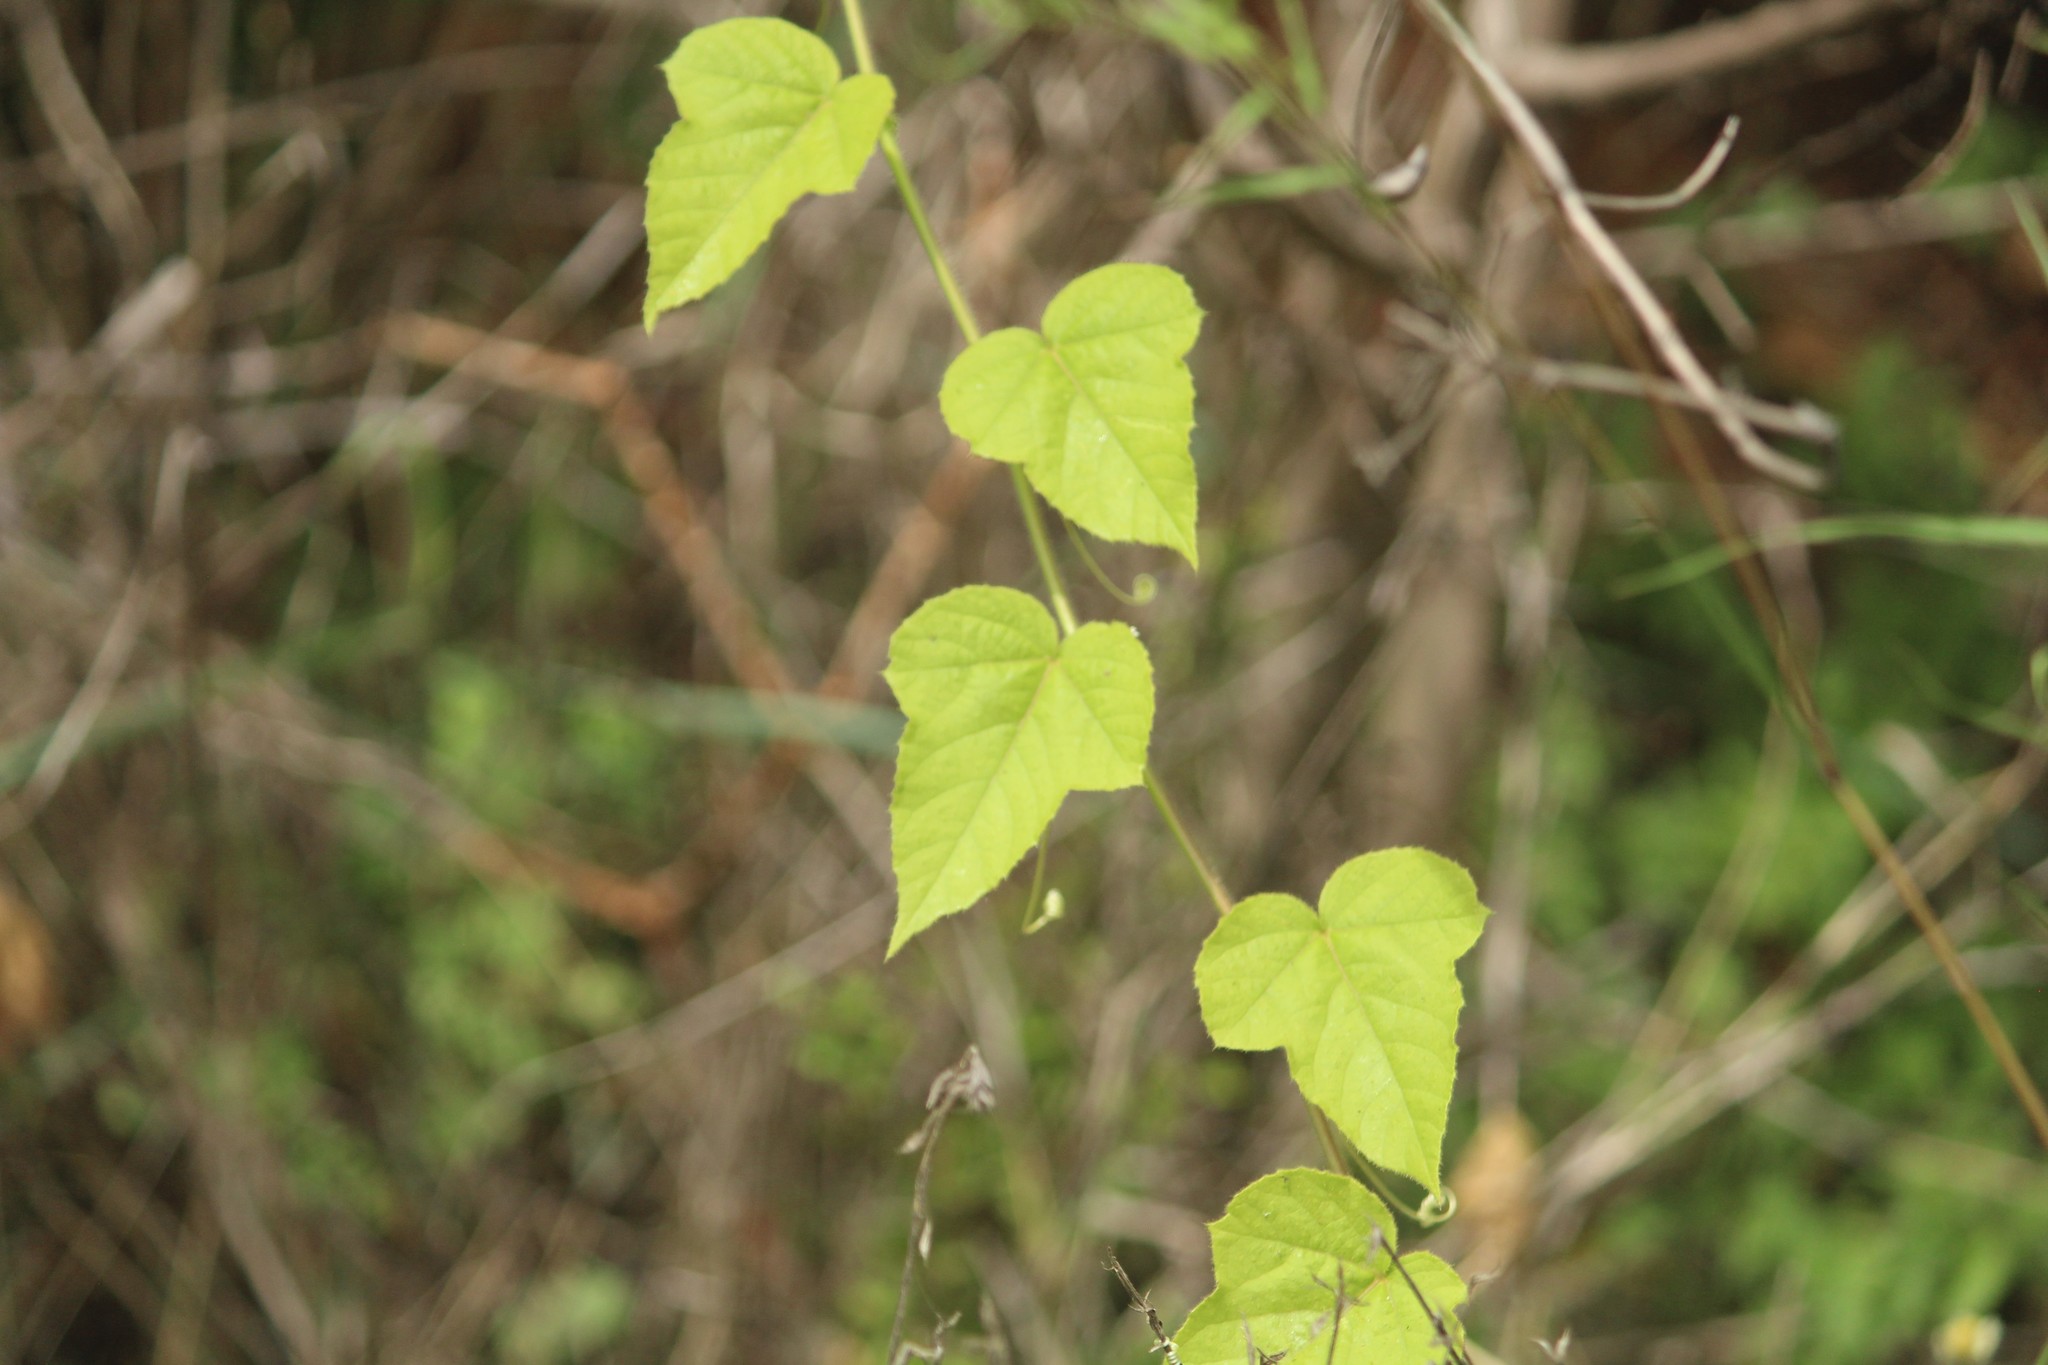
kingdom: Plantae
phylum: Tracheophyta
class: Magnoliopsida
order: Malpighiales
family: Passifloraceae
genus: Passiflora
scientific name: Passiflora foetida
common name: Fetid passionflower
